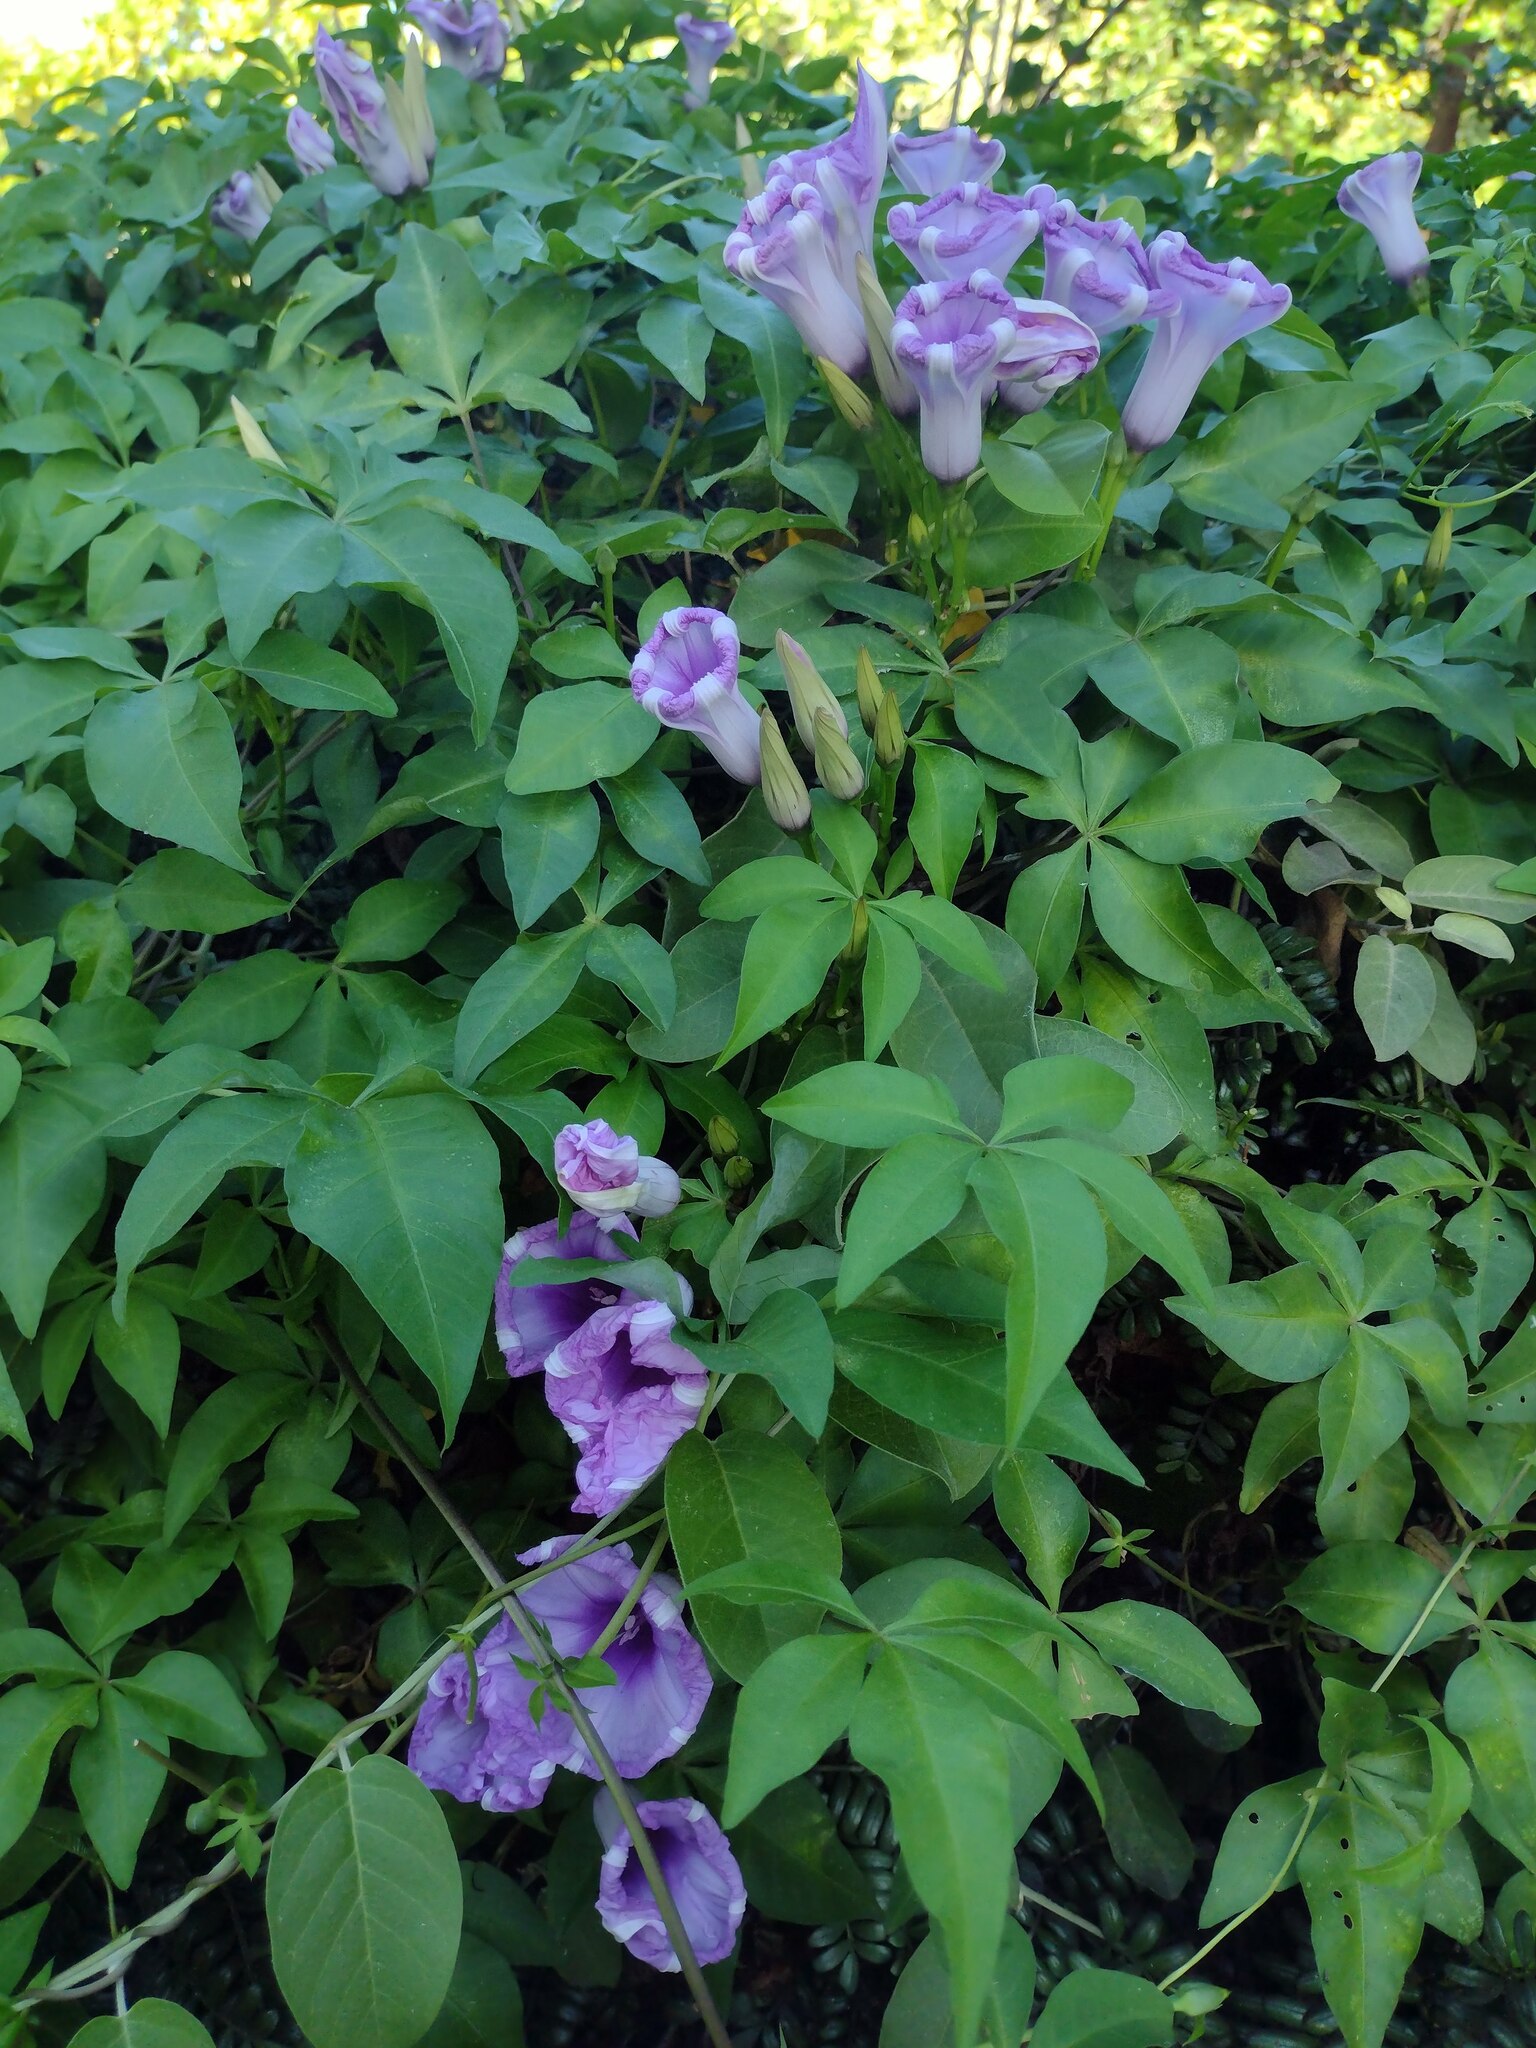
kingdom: Plantae
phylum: Tracheophyta
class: Magnoliopsida
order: Solanales
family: Convolvulaceae
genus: Ipomoea
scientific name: Ipomoea cairica
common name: Mile a minute vine
